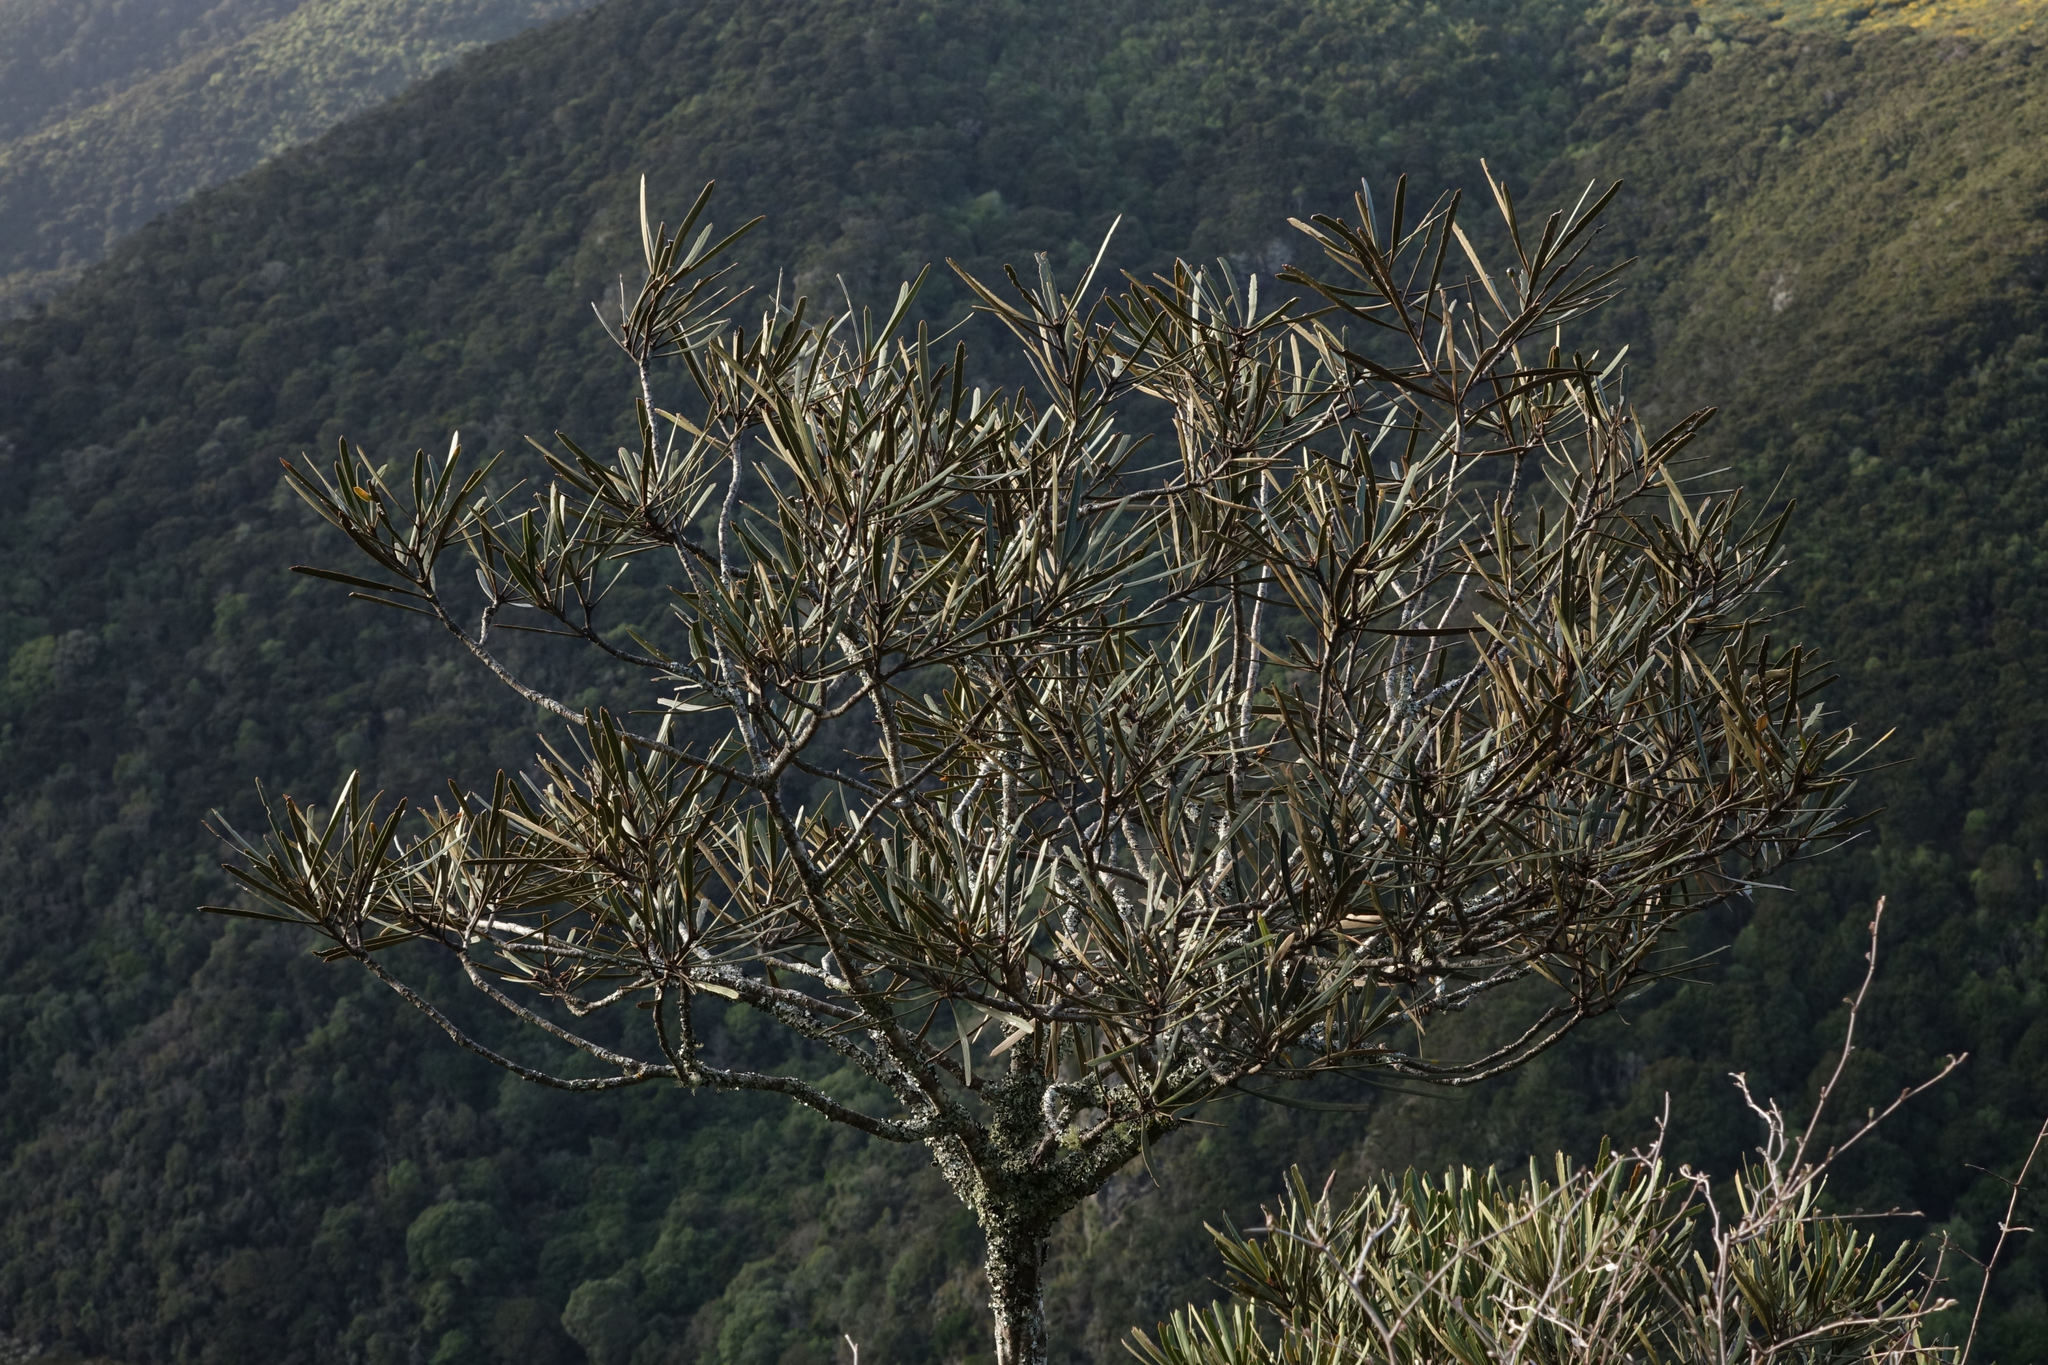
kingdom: Plantae
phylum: Tracheophyta
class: Magnoliopsida
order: Apiales
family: Araliaceae
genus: Pseudopanax
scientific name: Pseudopanax ferox
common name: Fierce lancewood
